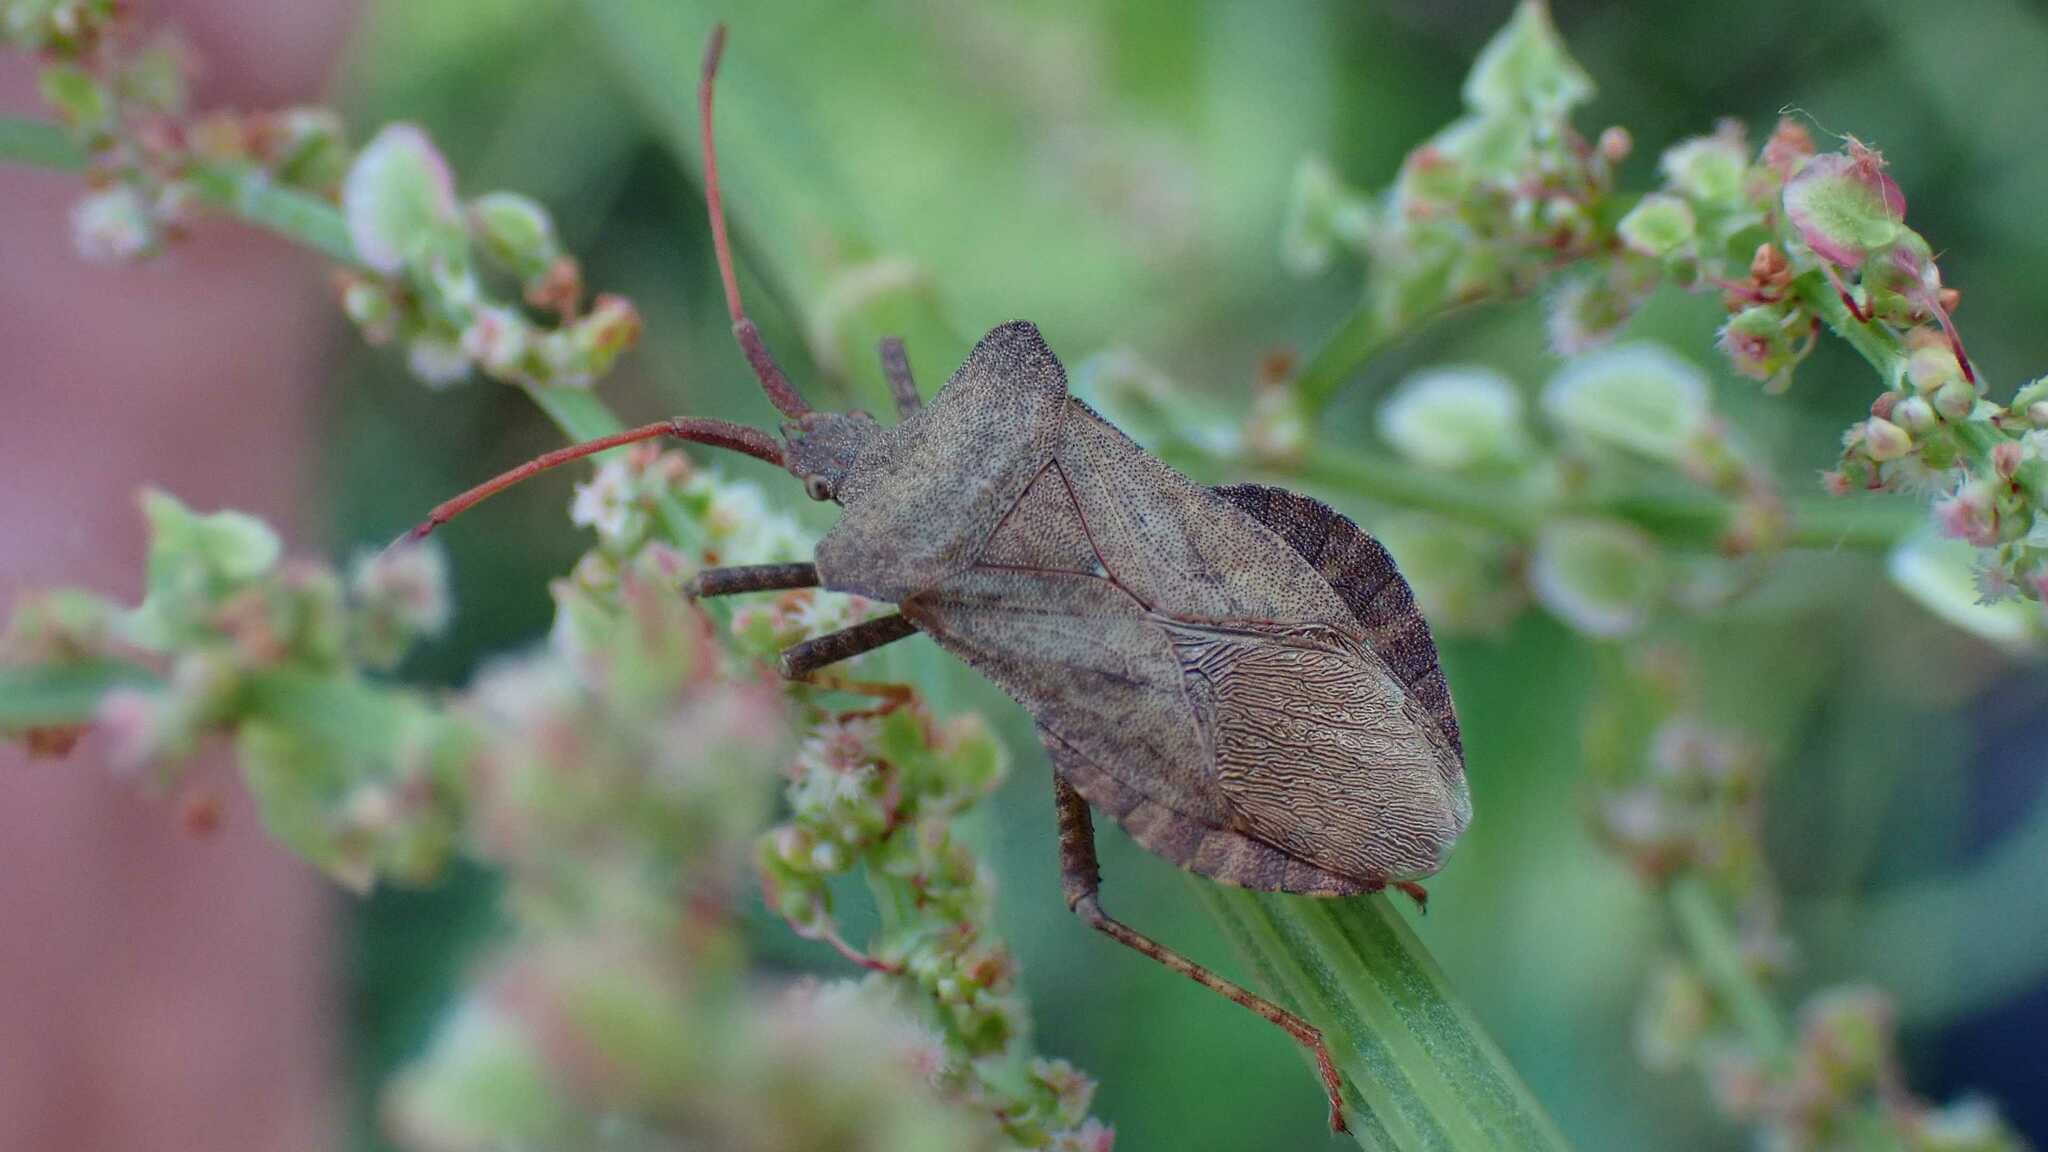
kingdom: Animalia
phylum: Arthropoda
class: Insecta
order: Hemiptera
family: Coreidae
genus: Coreus
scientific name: Coreus marginatus
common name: Dock bug
